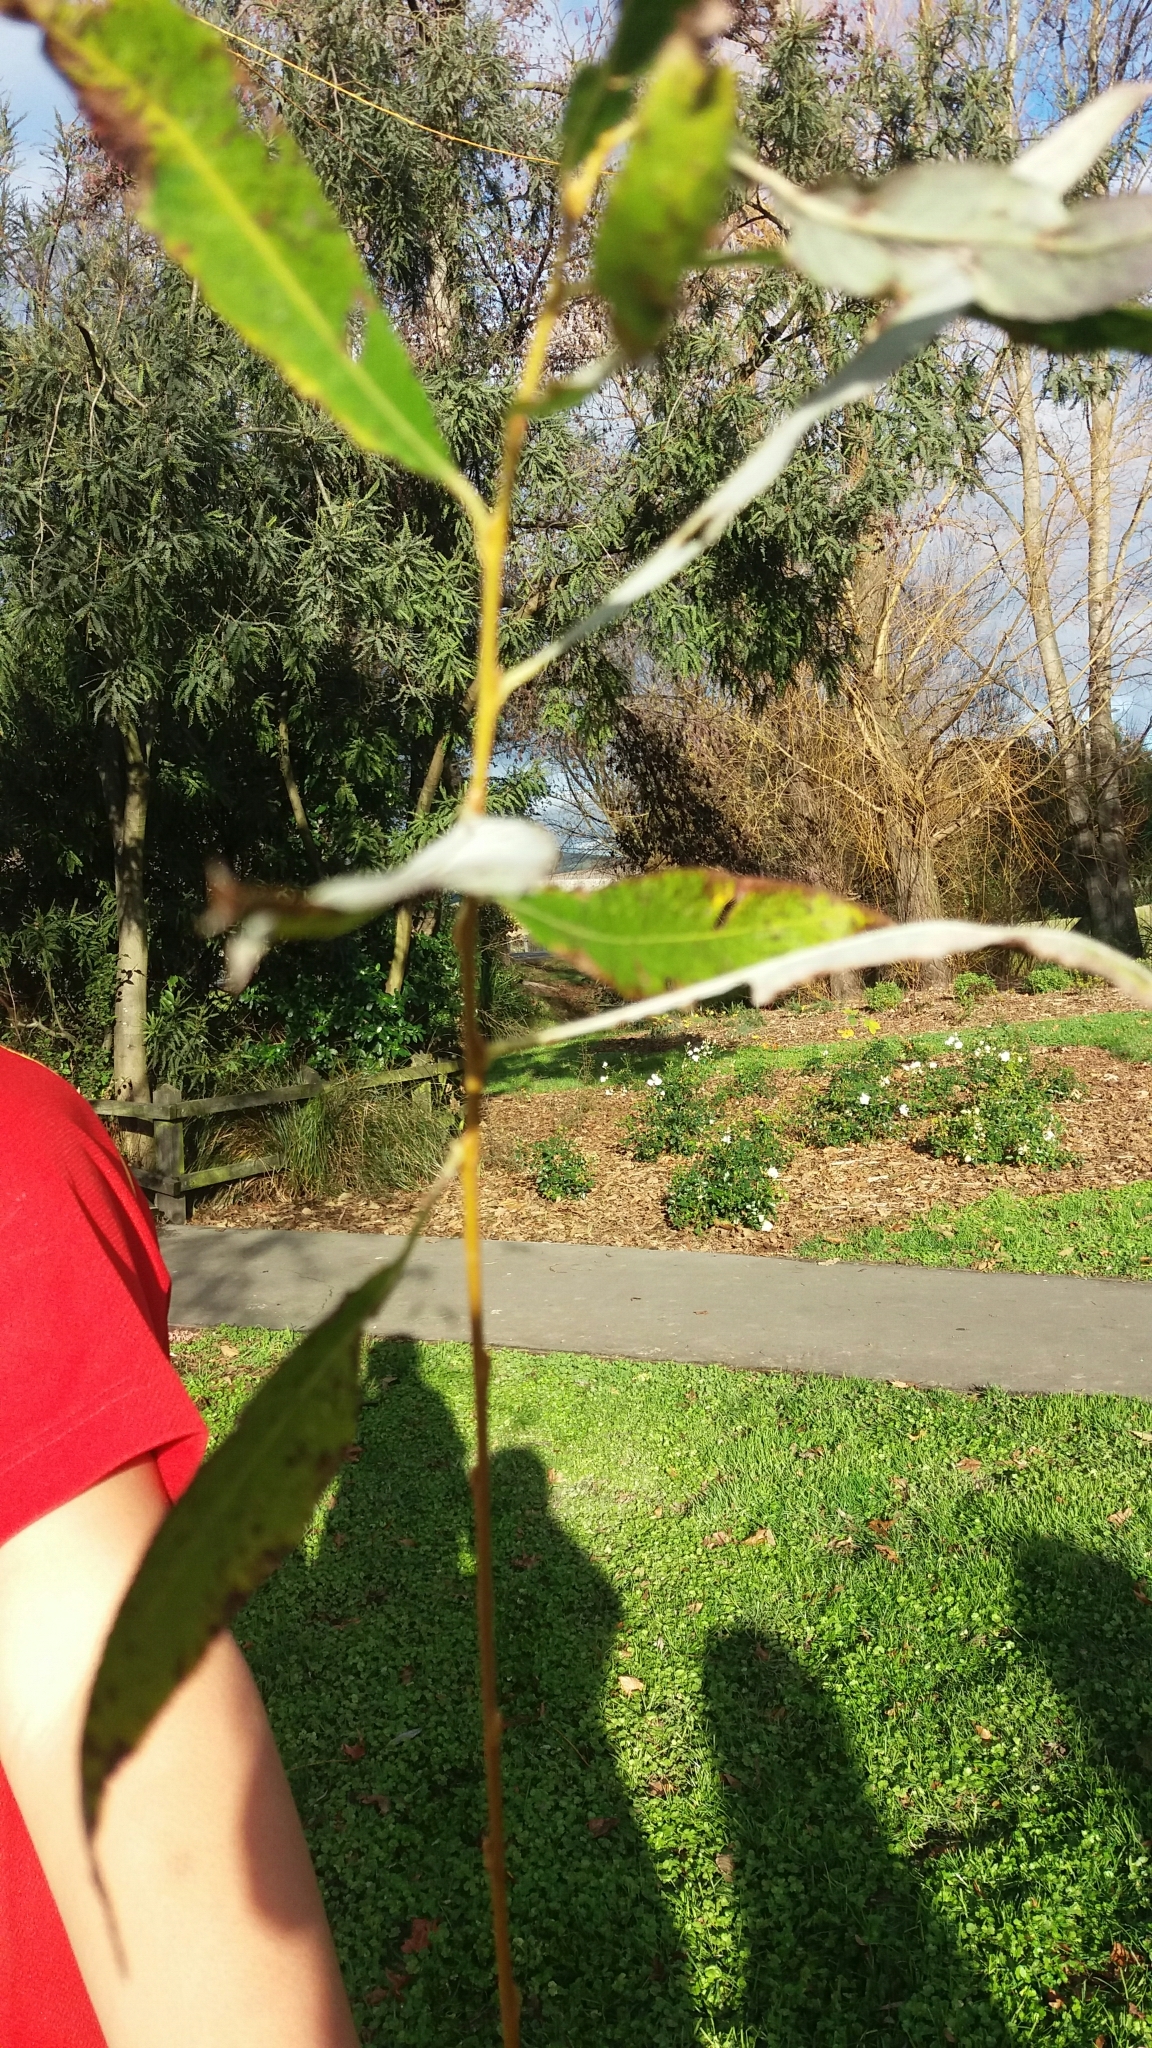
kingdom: Plantae
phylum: Tracheophyta
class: Magnoliopsida
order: Malpighiales
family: Salicaceae
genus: Salix
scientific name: Salix fragilis
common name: Crack willow
